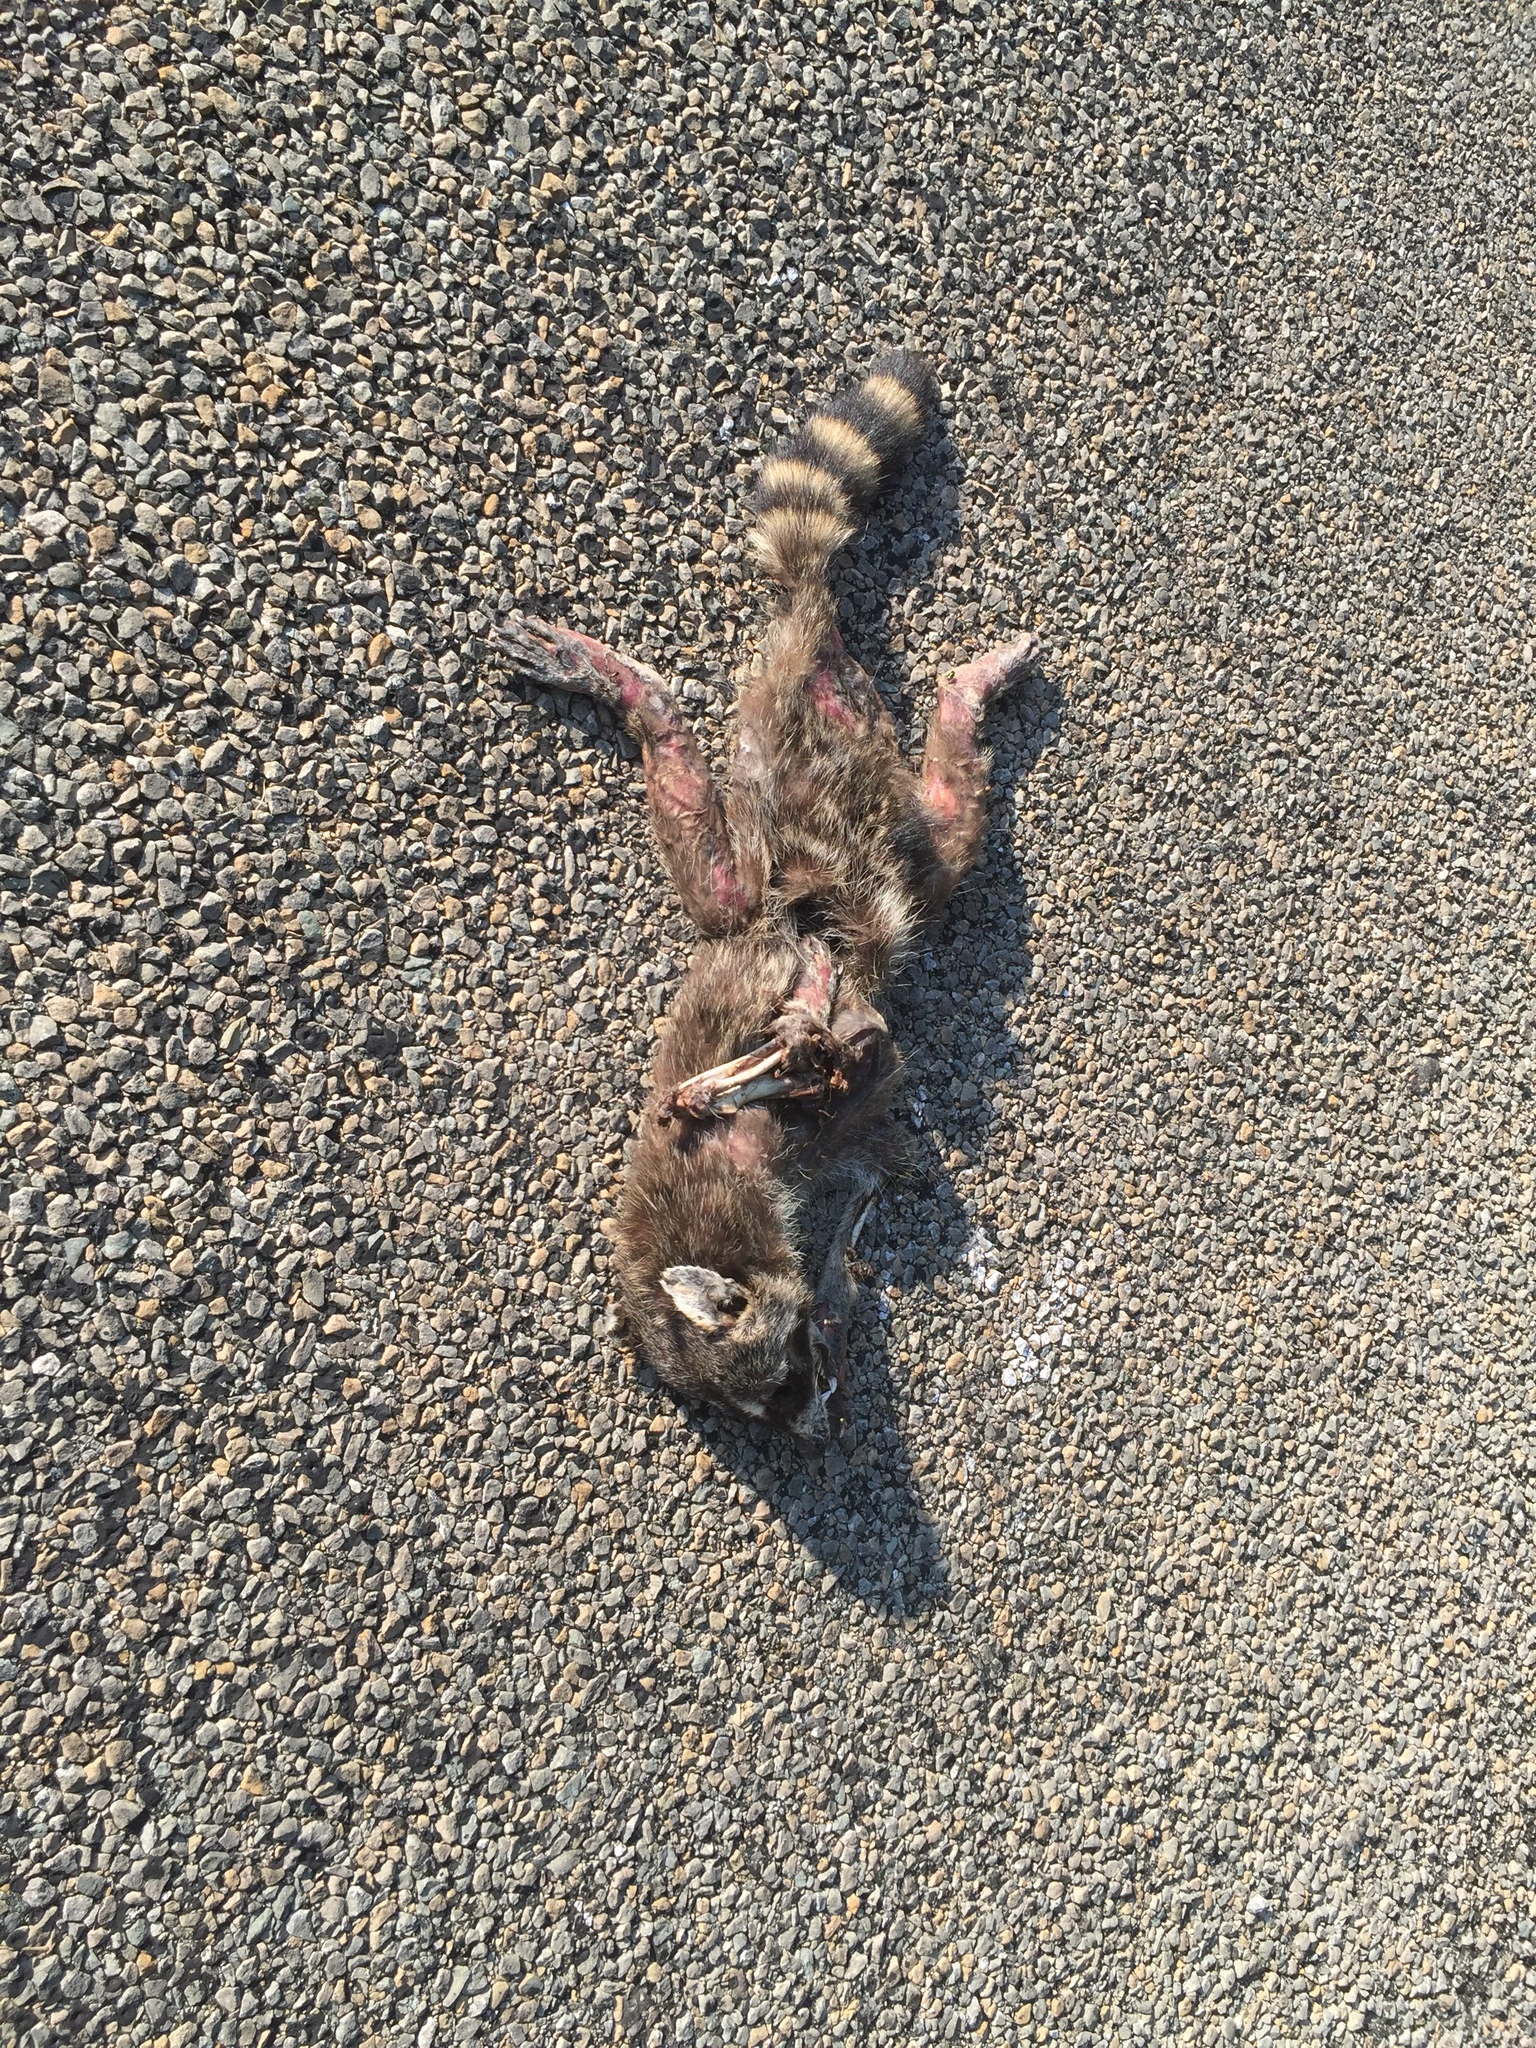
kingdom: Animalia
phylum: Chordata
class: Mammalia
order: Carnivora
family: Procyonidae
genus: Procyon
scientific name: Procyon lotor
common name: Raccoon
